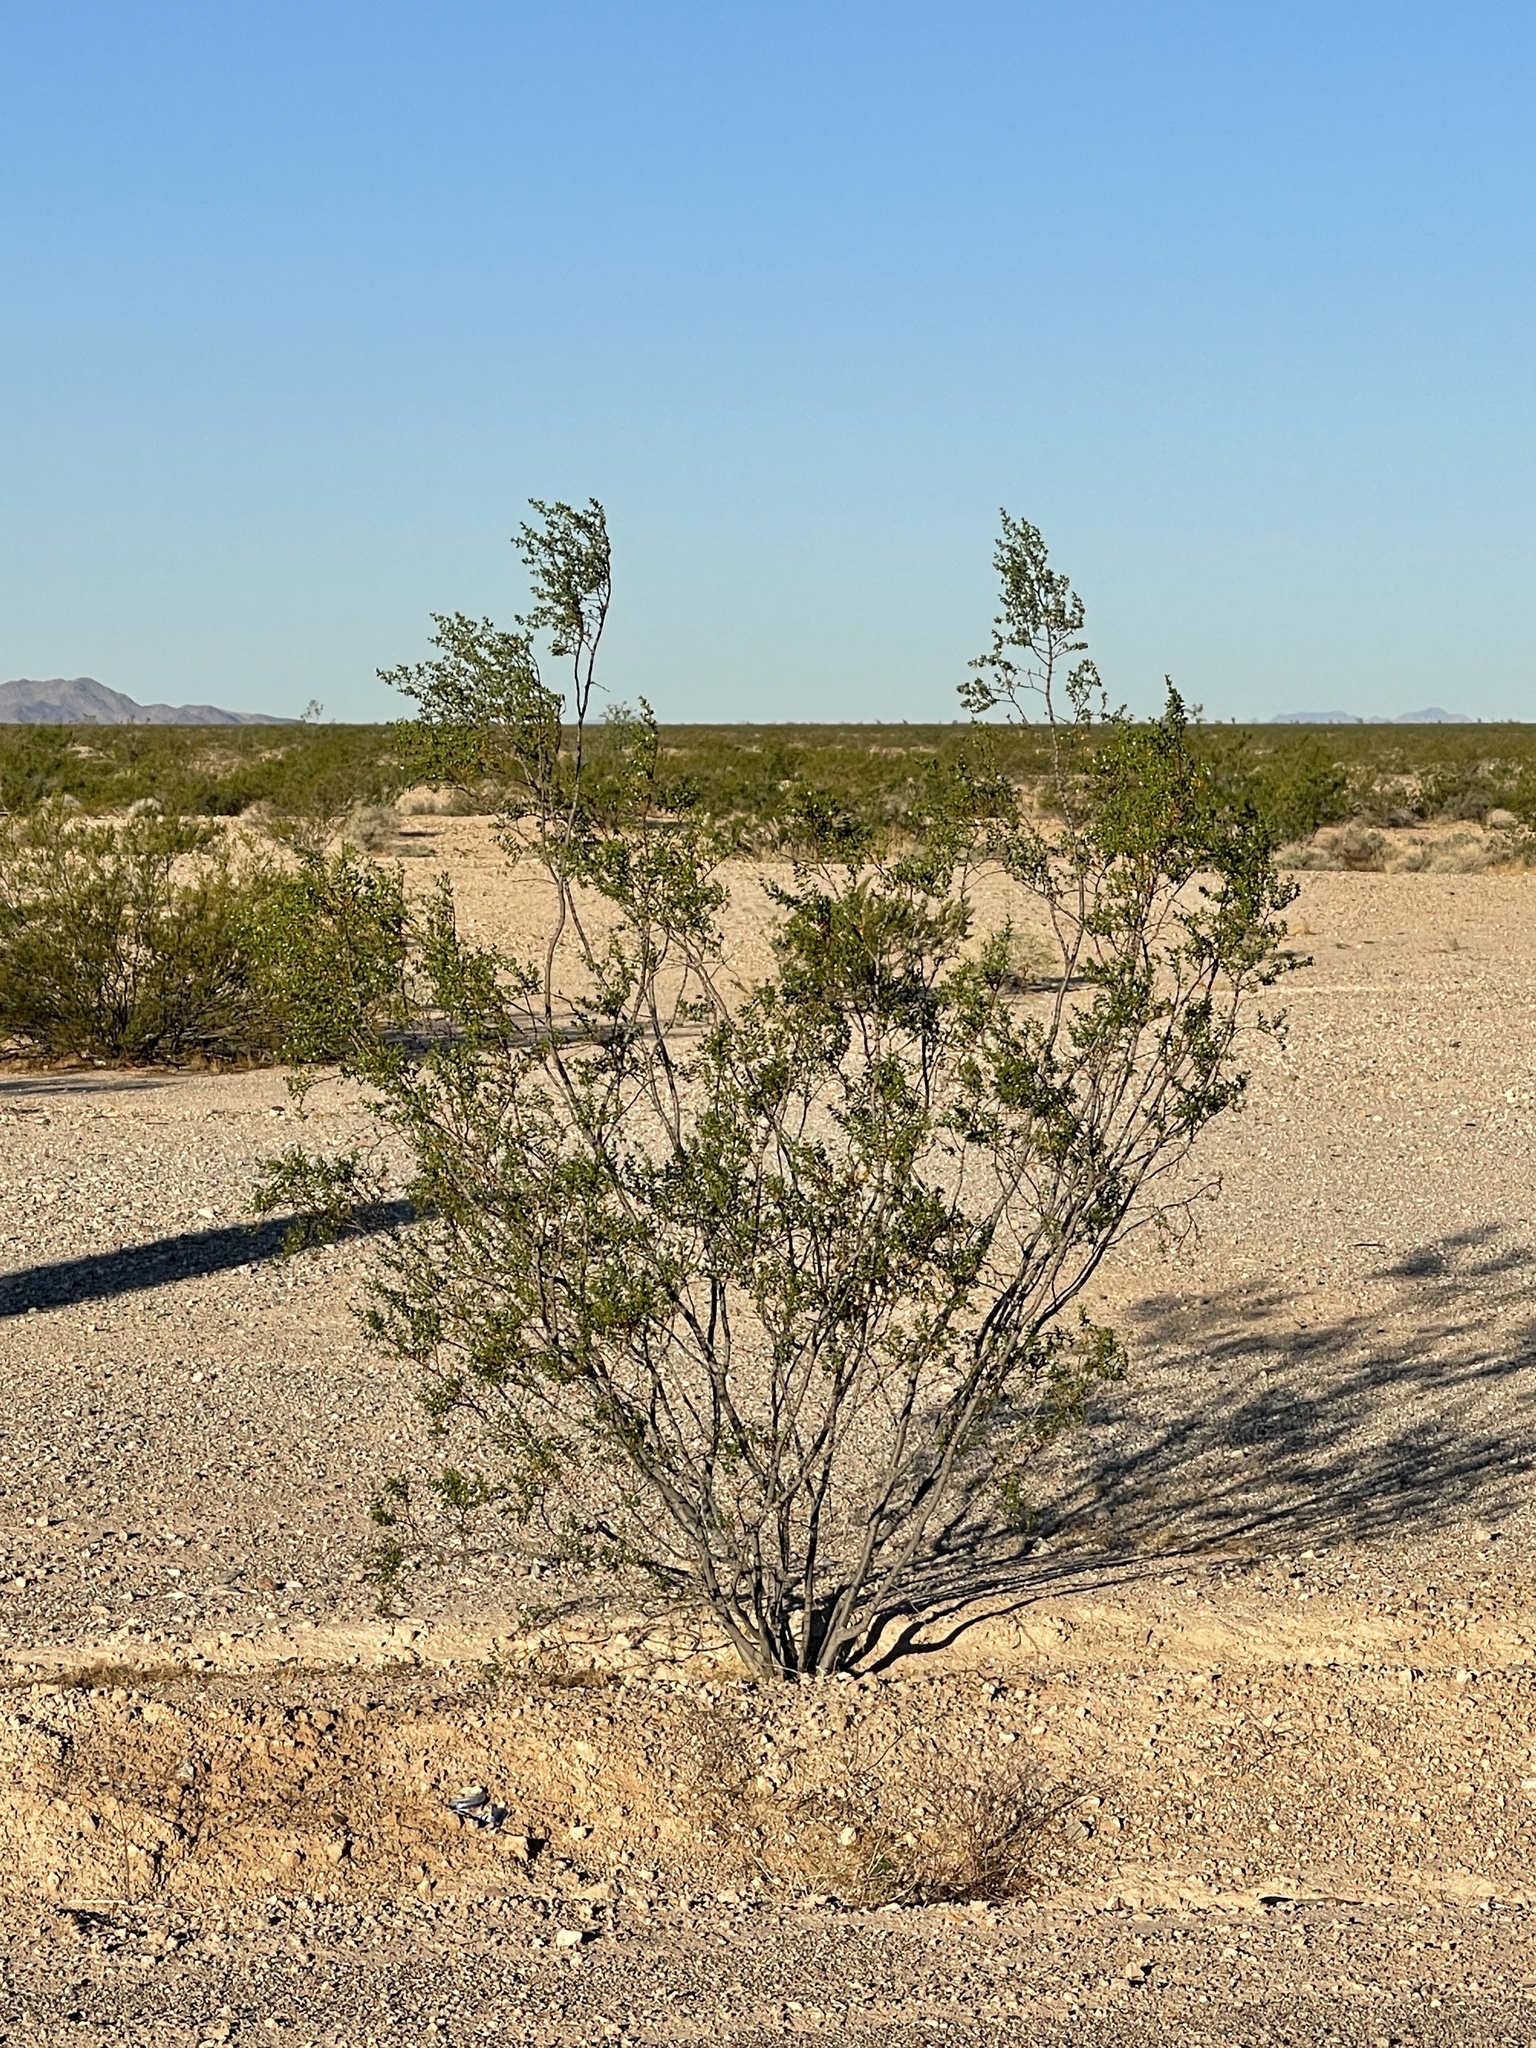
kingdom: Plantae
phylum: Tracheophyta
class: Magnoliopsida
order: Zygophyllales
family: Zygophyllaceae
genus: Larrea
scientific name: Larrea tridentata
